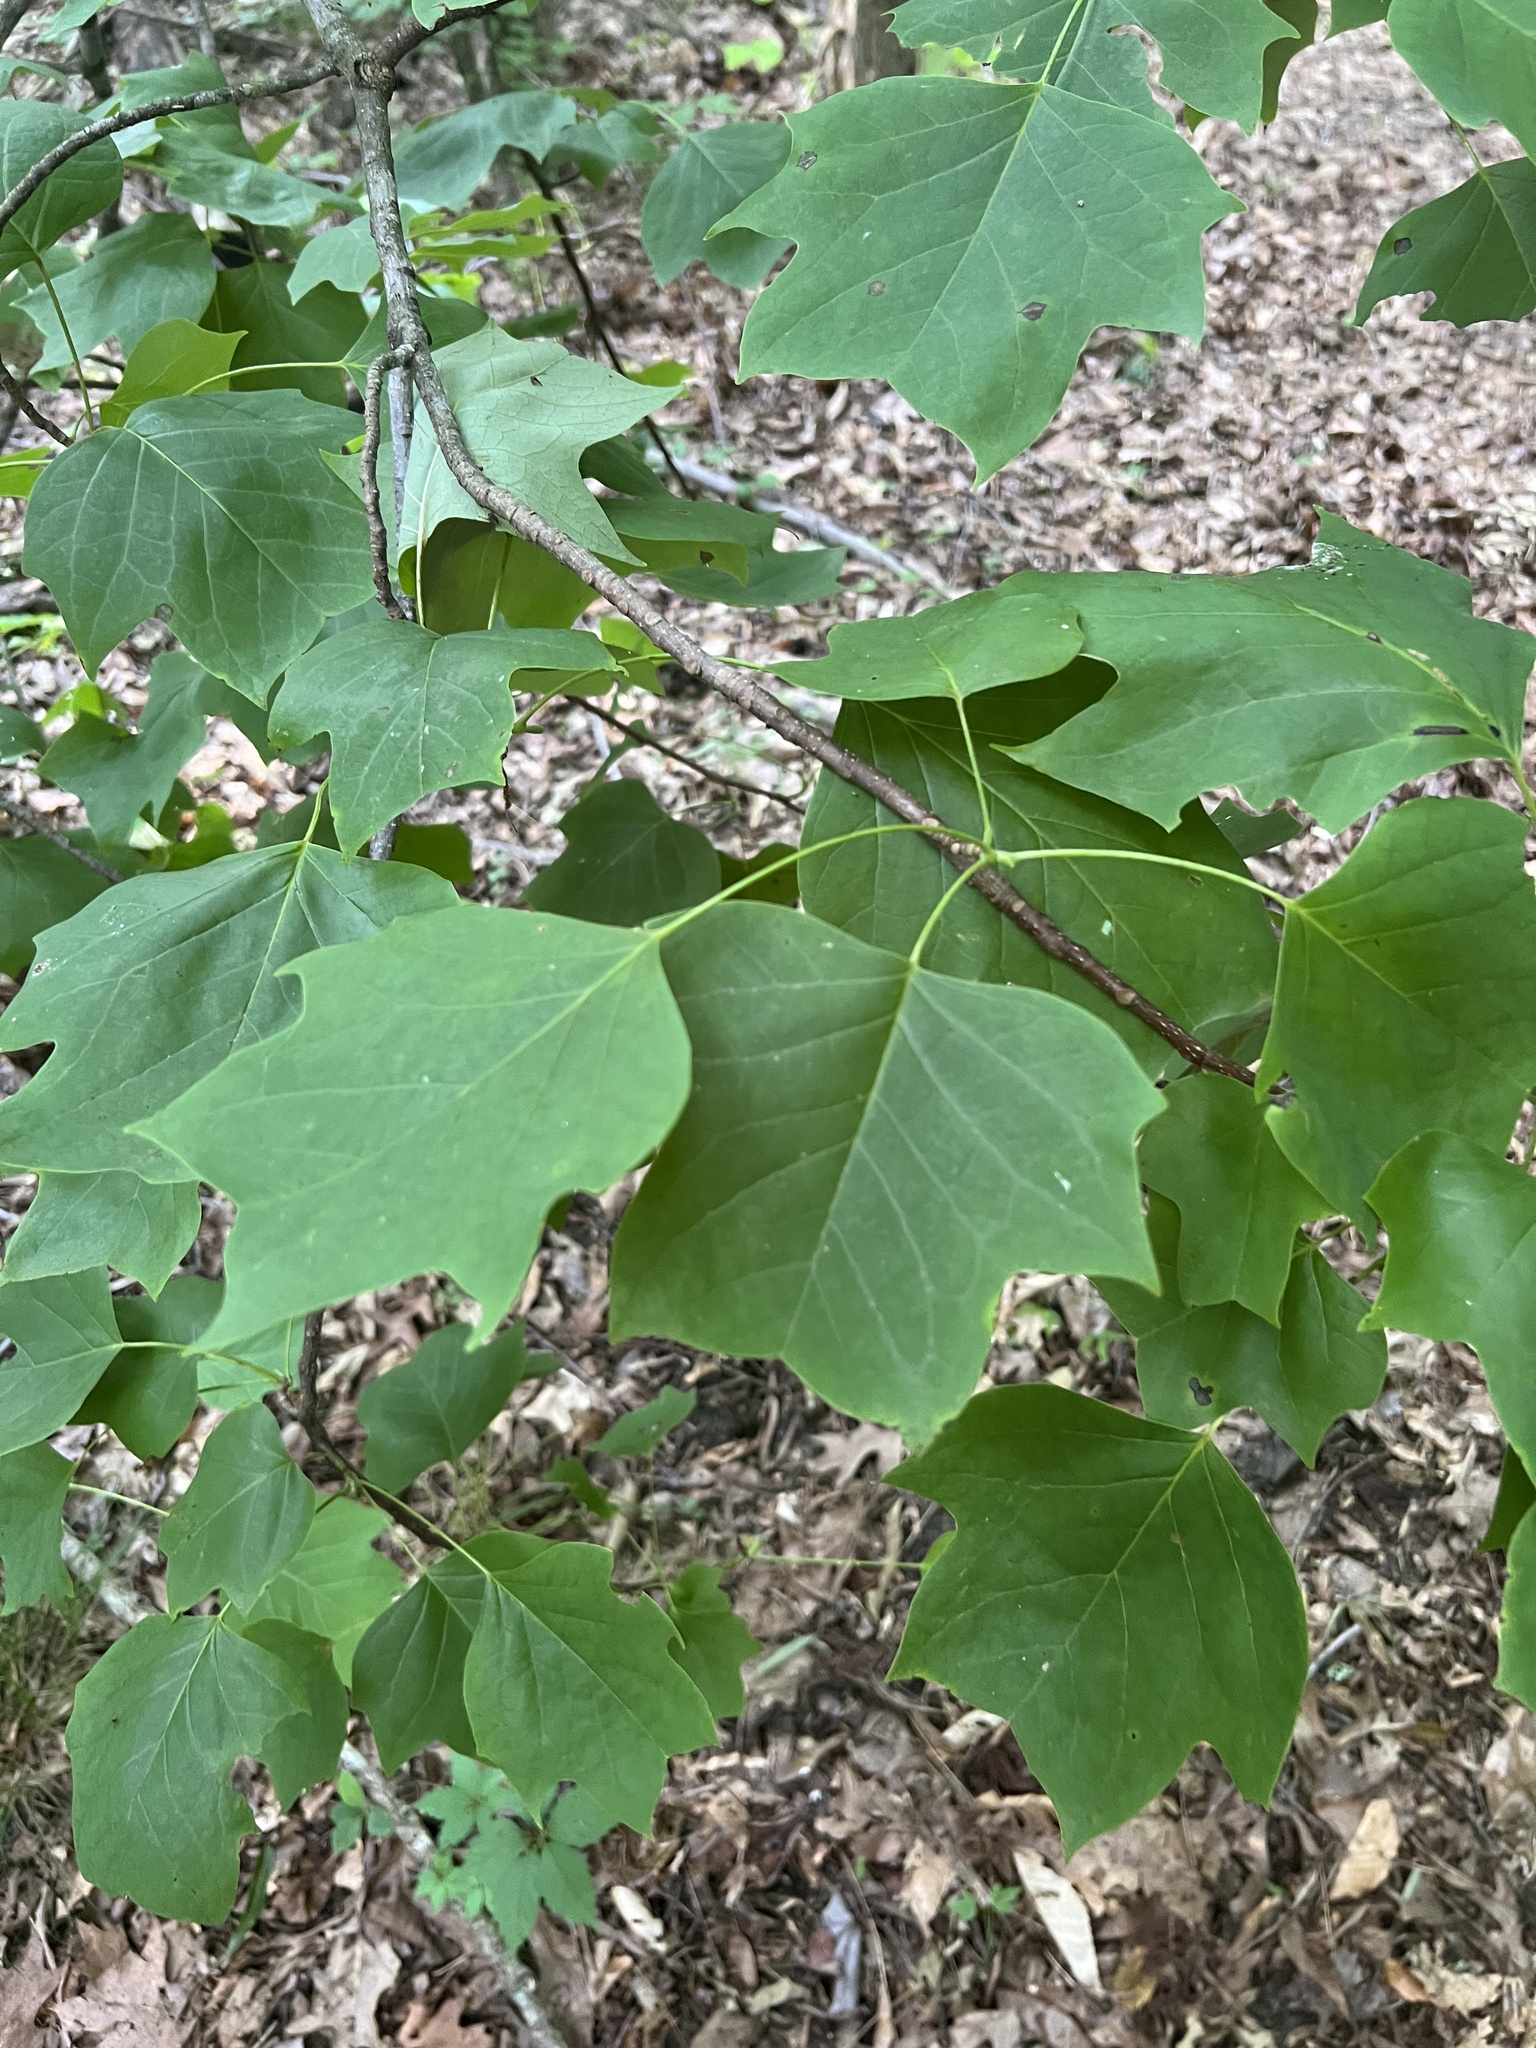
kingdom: Plantae
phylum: Tracheophyta
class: Magnoliopsida
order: Magnoliales
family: Magnoliaceae
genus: Liriodendron
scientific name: Liriodendron tulipifera
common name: Tulip tree
